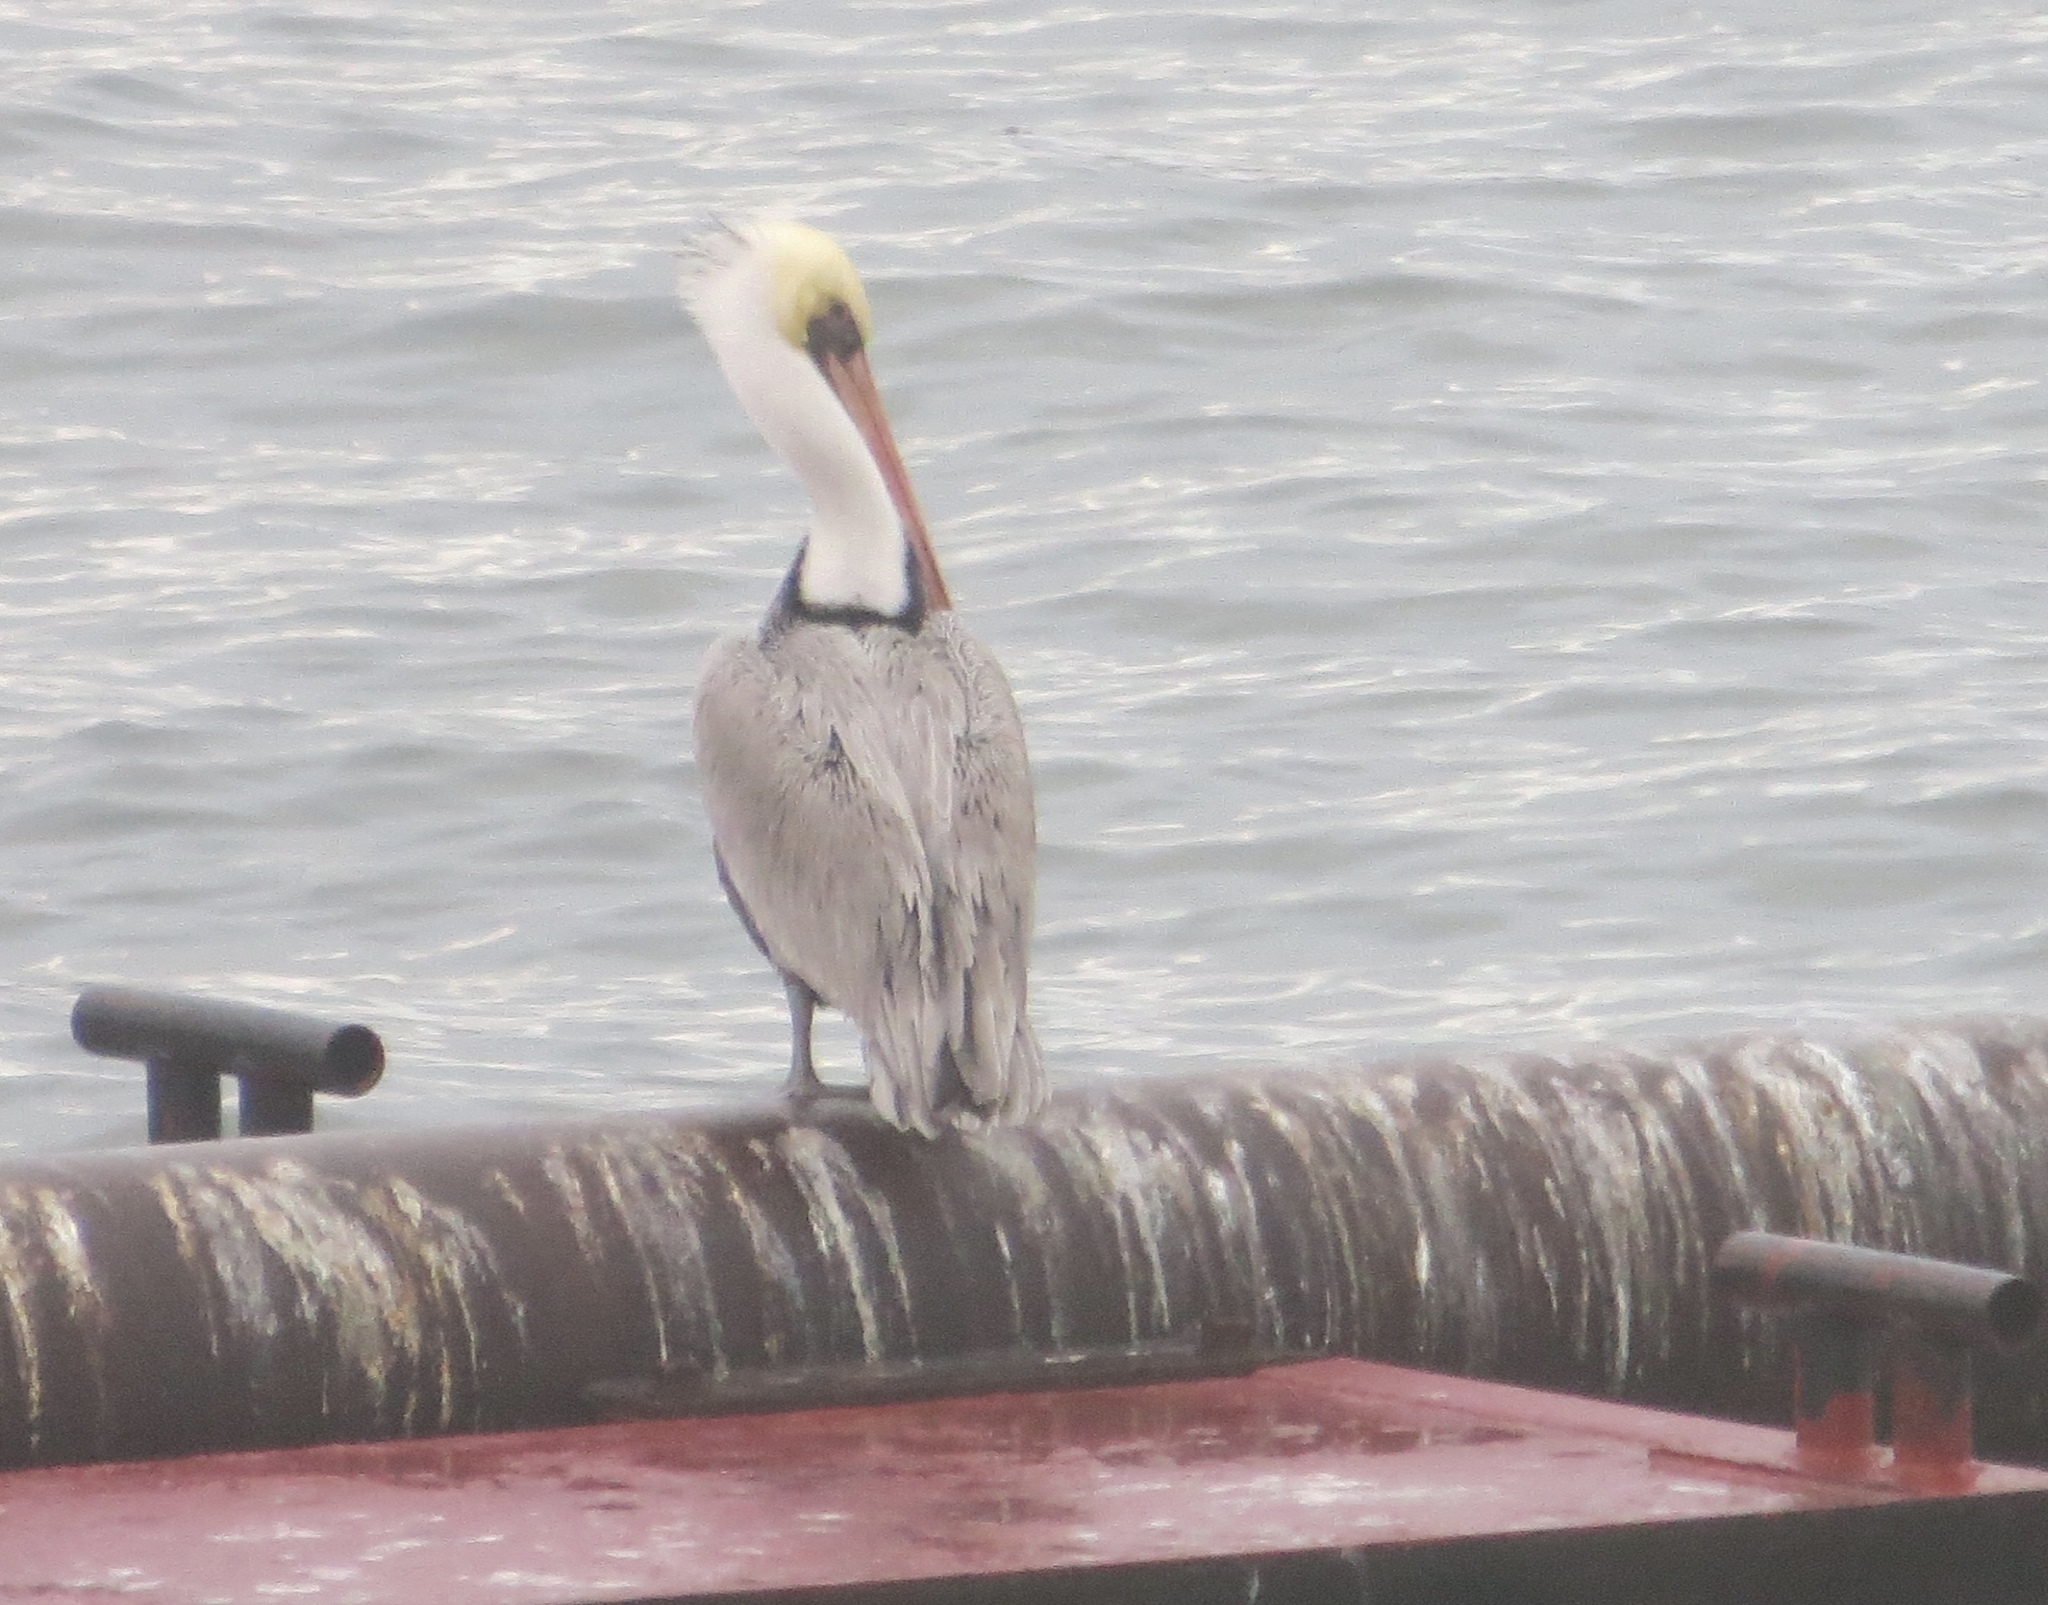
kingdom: Animalia
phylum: Chordata
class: Aves
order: Pelecaniformes
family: Pelecanidae
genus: Pelecanus
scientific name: Pelecanus occidentalis
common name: Brown pelican
